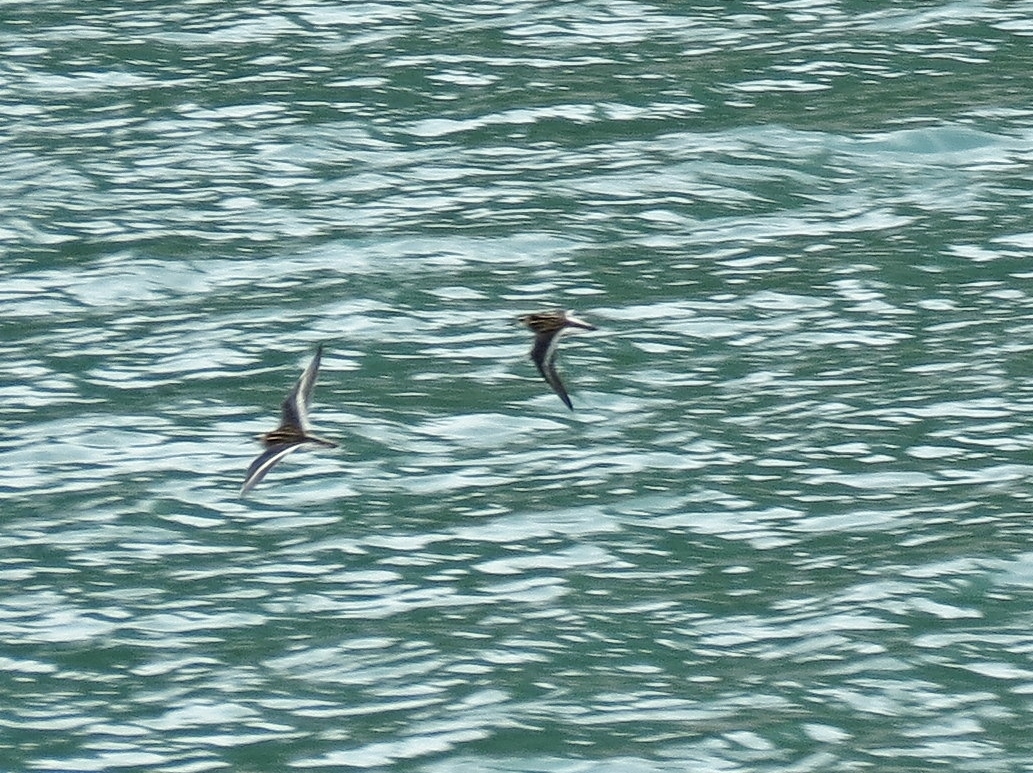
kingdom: Animalia
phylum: Chordata
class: Aves
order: Charadriiformes
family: Scolopacidae
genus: Phalaropus
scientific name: Phalaropus lobatus
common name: Red-necked phalarope
